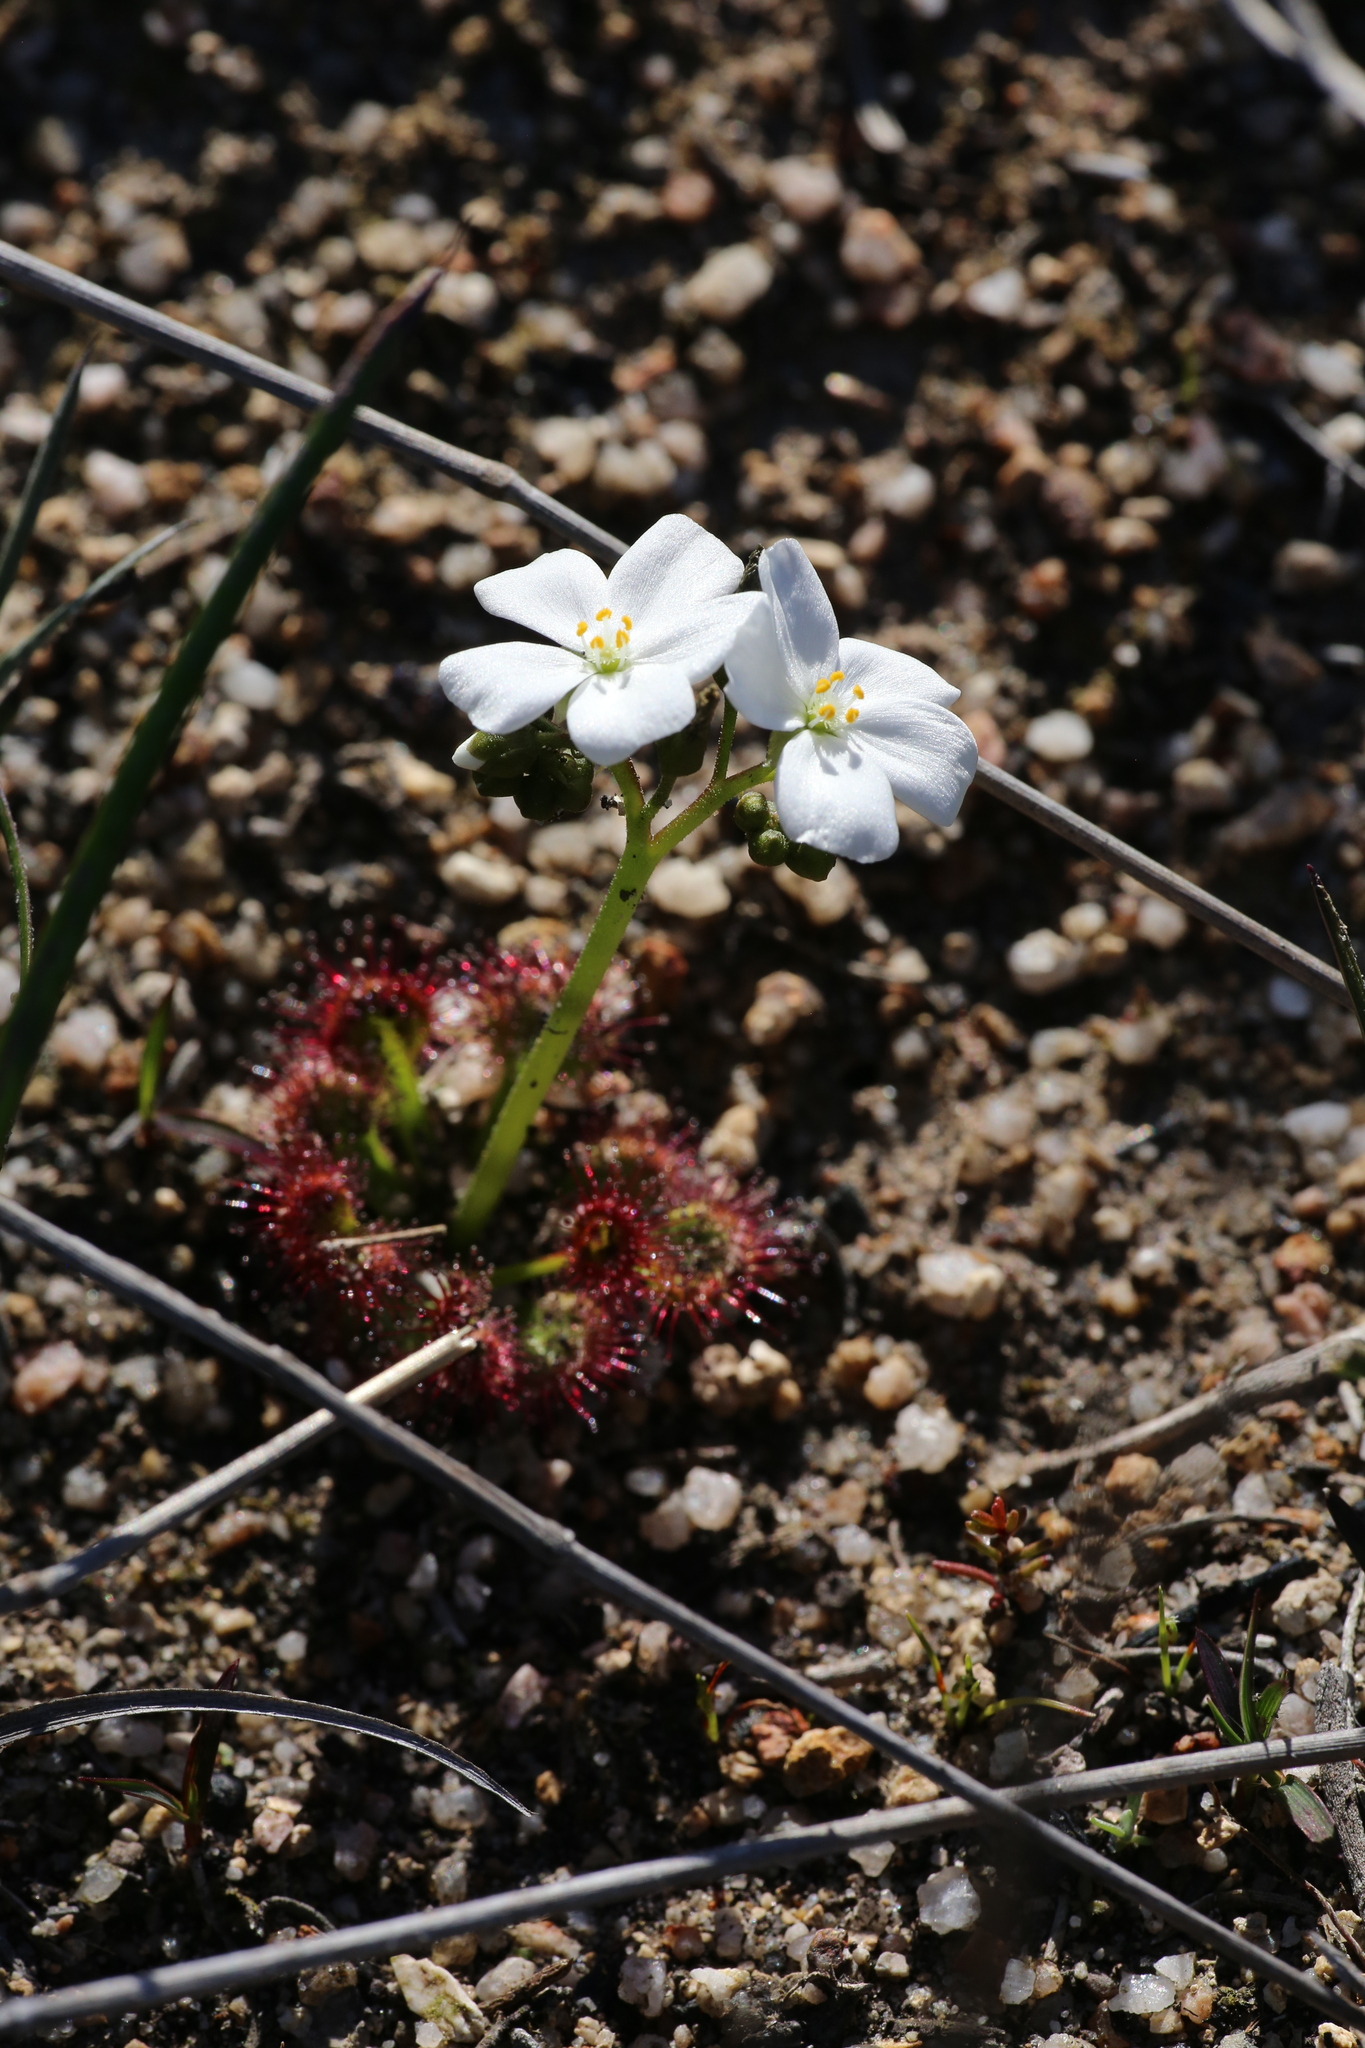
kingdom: Plantae
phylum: Tracheophyta
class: Magnoliopsida
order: Caryophyllales
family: Droseraceae
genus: Drosera
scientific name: Drosera stolonifera
